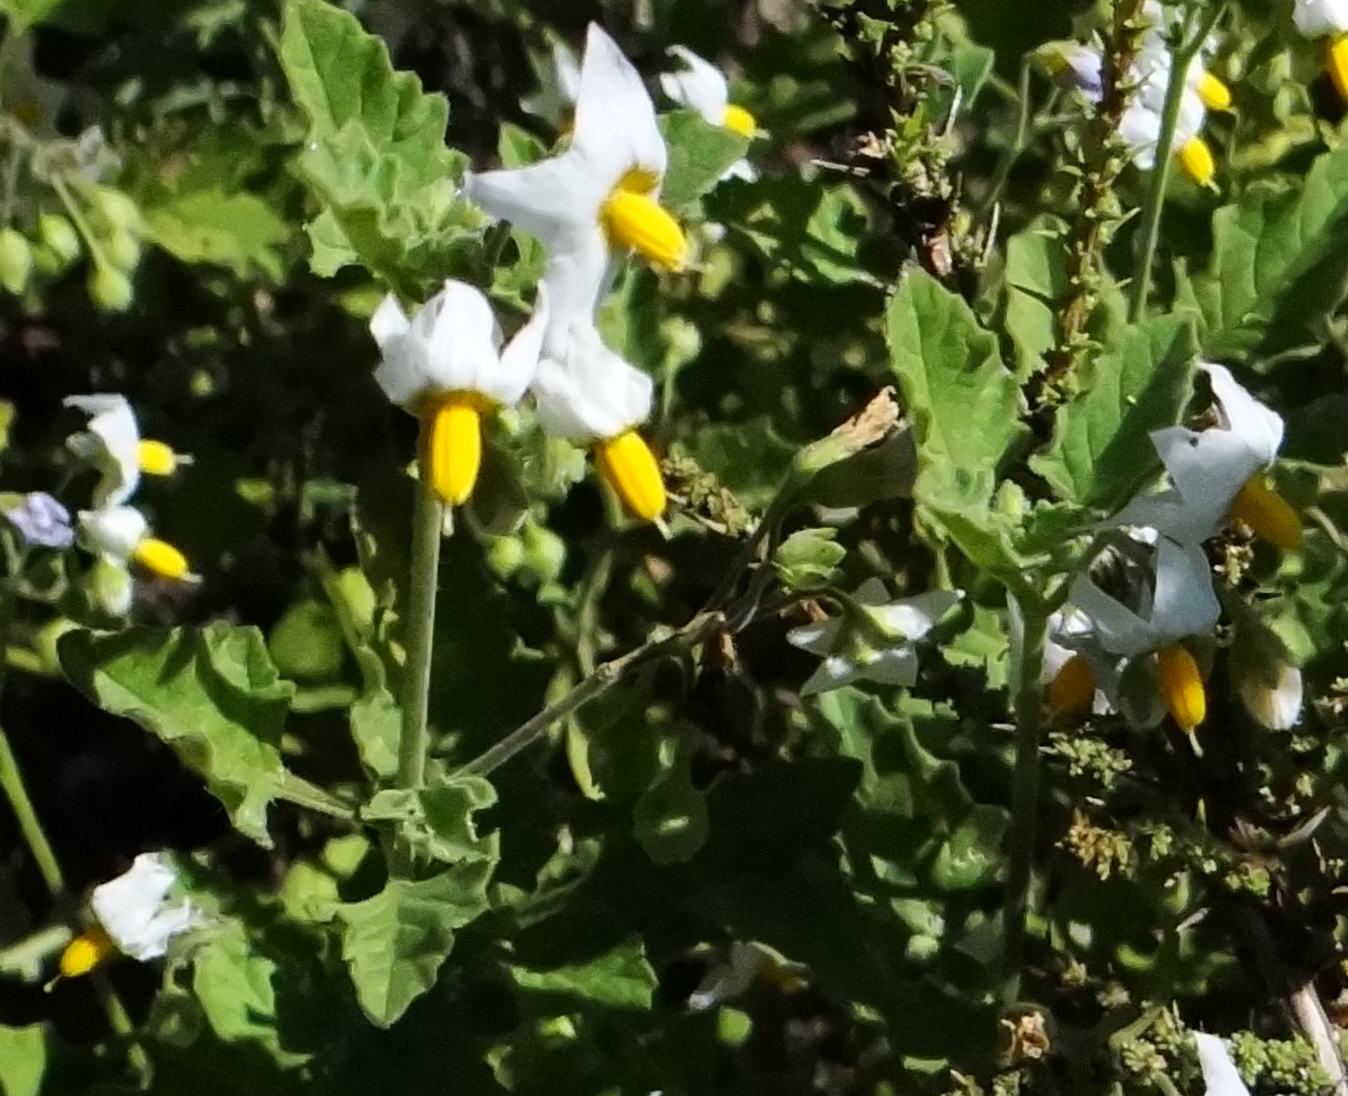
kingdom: Plantae
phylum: Tracheophyta
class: Magnoliopsida
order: Solanales
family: Solanaceae
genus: Solanum
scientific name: Solanum
